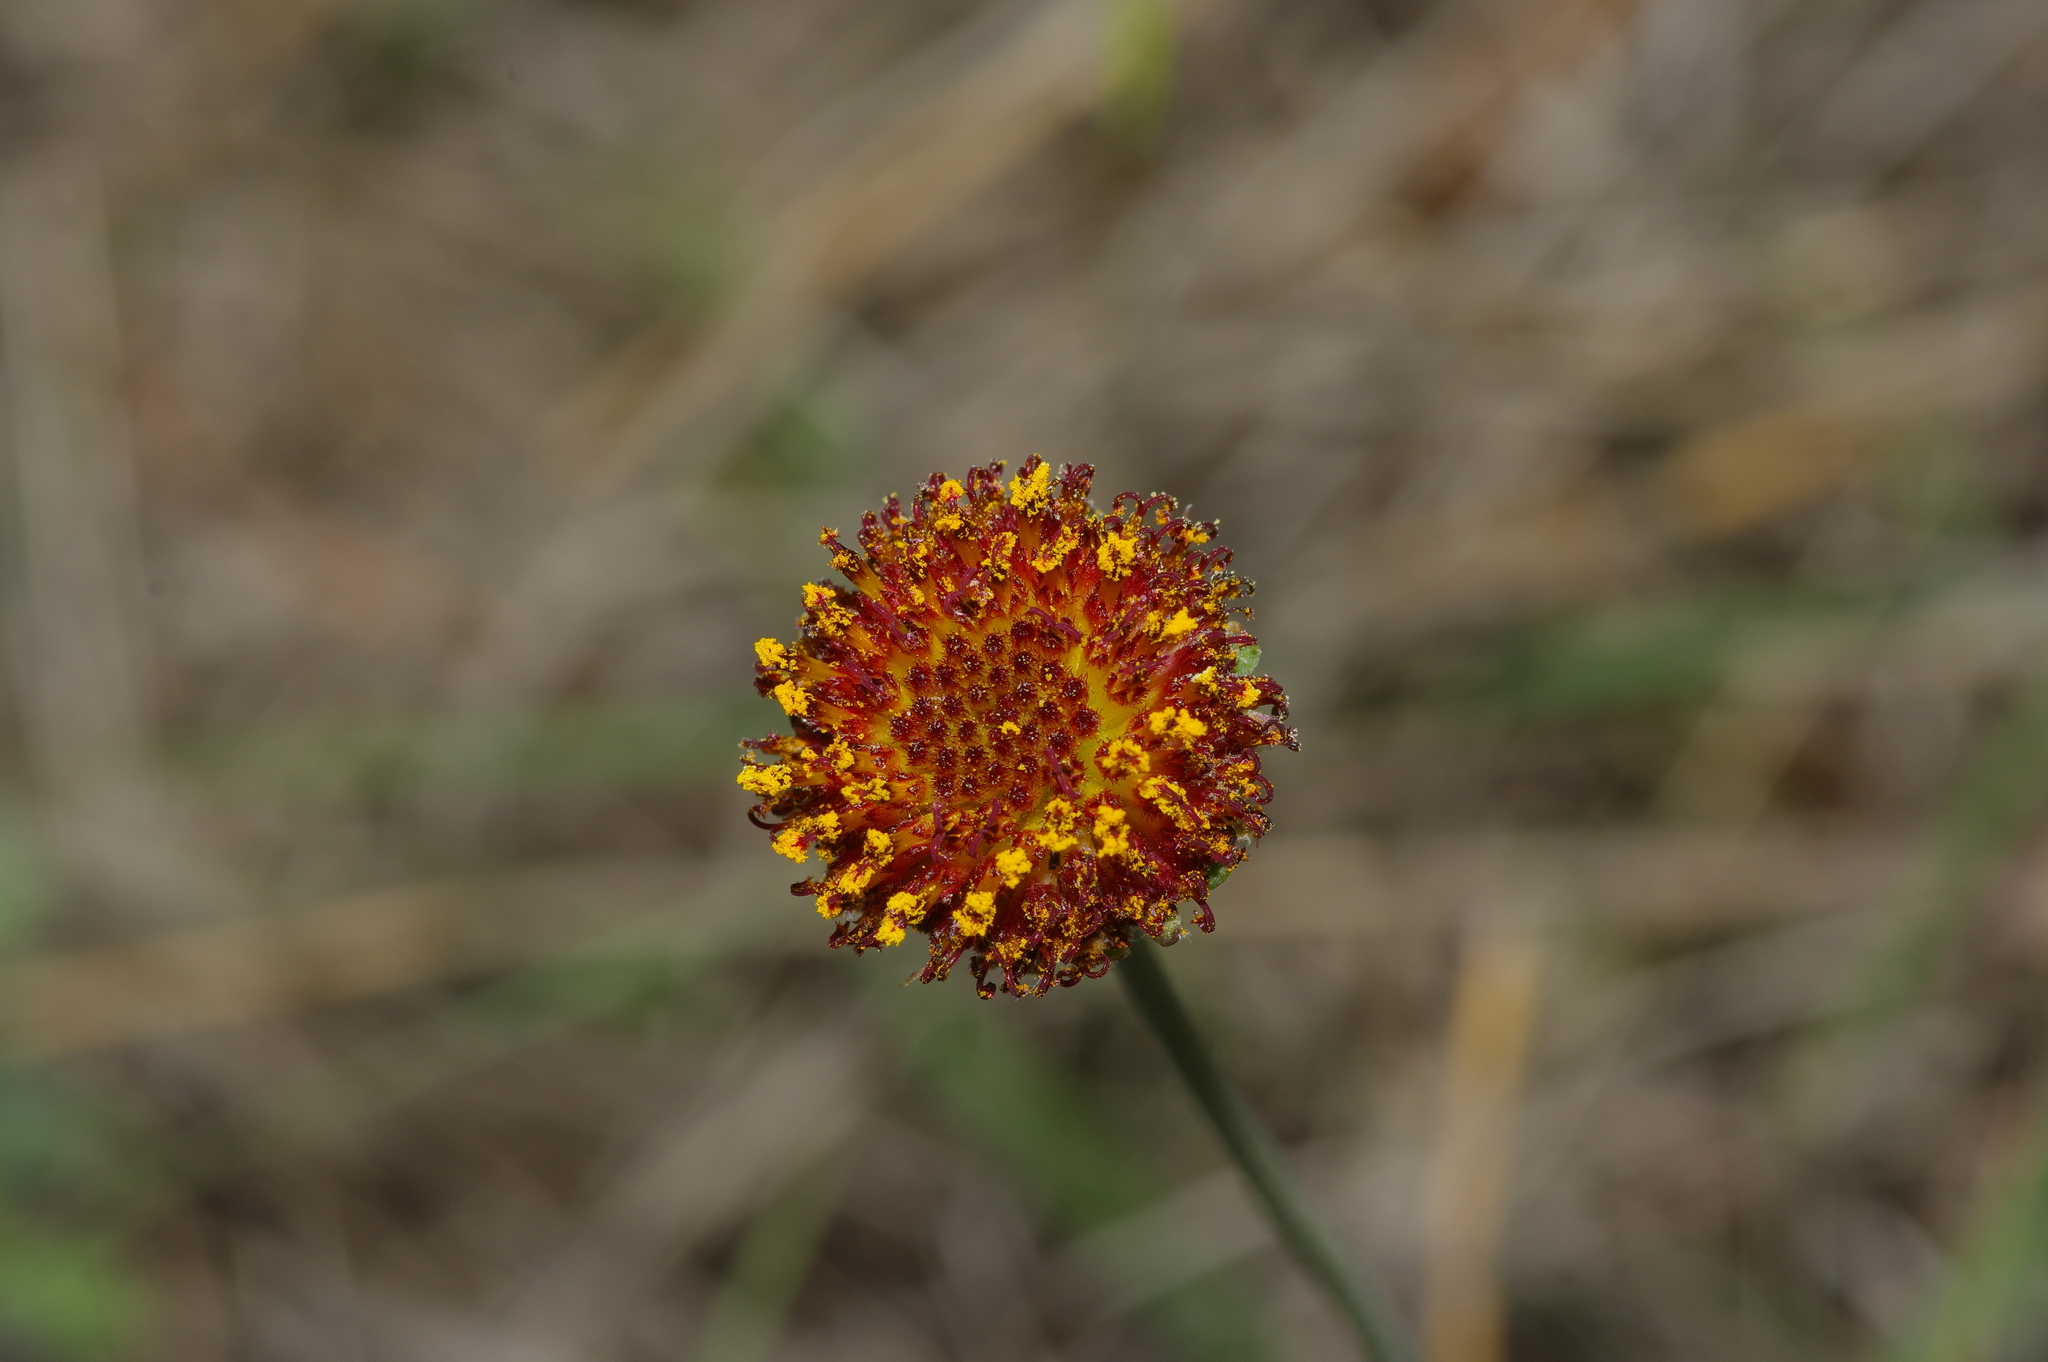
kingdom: Plantae
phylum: Tracheophyta
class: Magnoliopsida
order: Asterales
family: Asteraceae
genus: Gaillardia
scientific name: Gaillardia suavis
